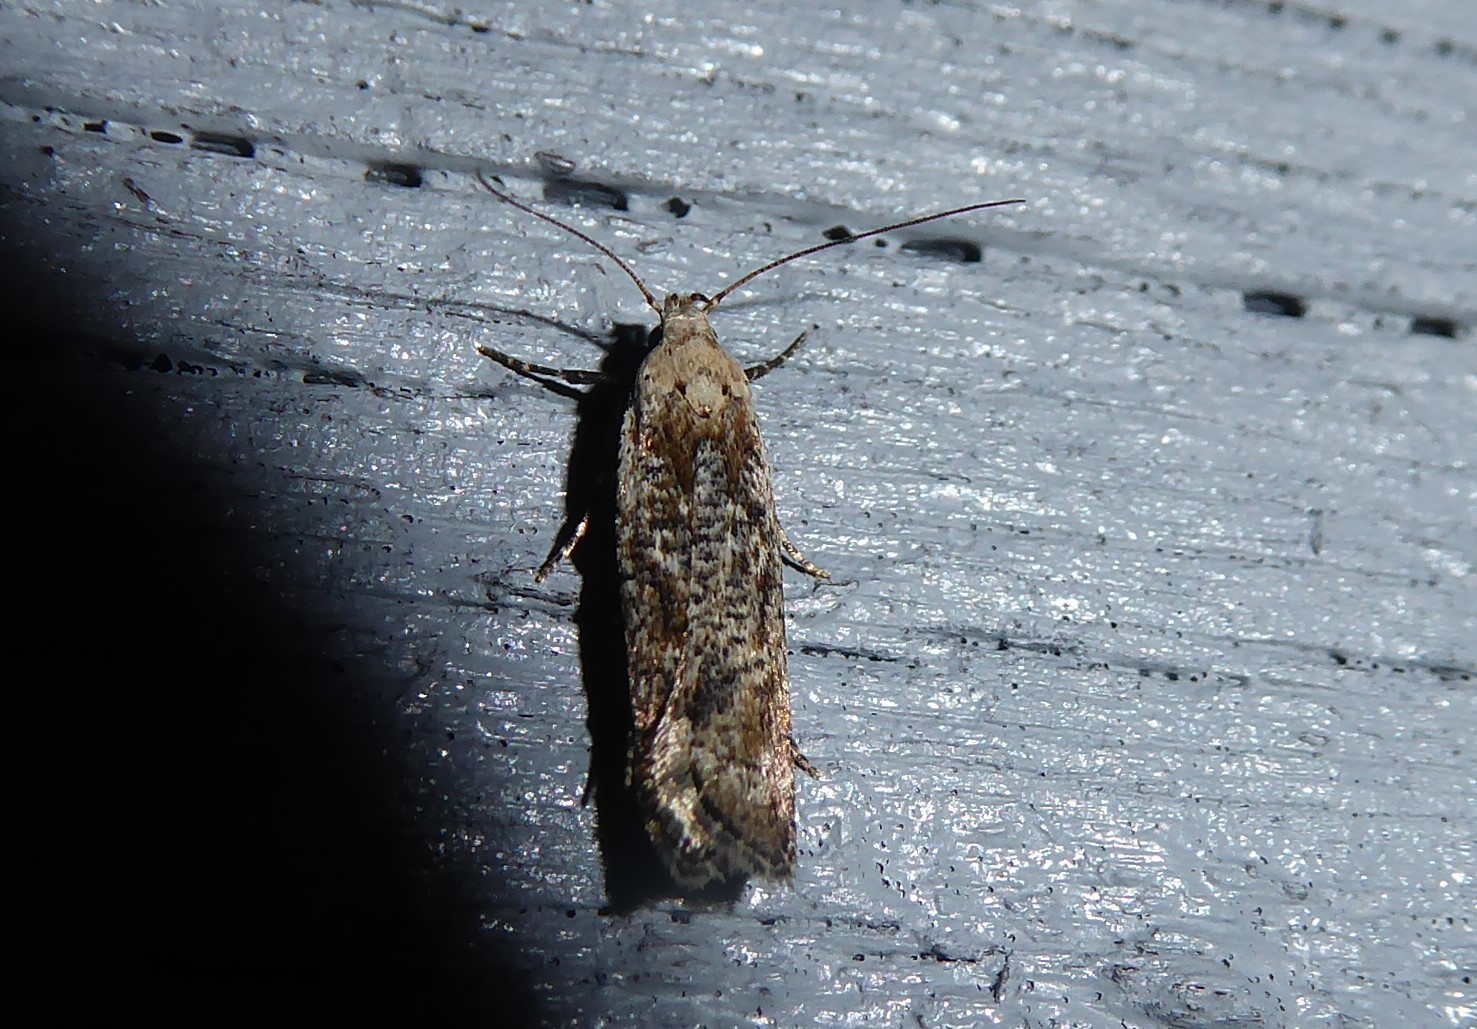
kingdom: Animalia
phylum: Arthropoda
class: Insecta
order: Lepidoptera
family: Gelechiidae
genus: Anisoplaca
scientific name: Anisoplaca achyrota
